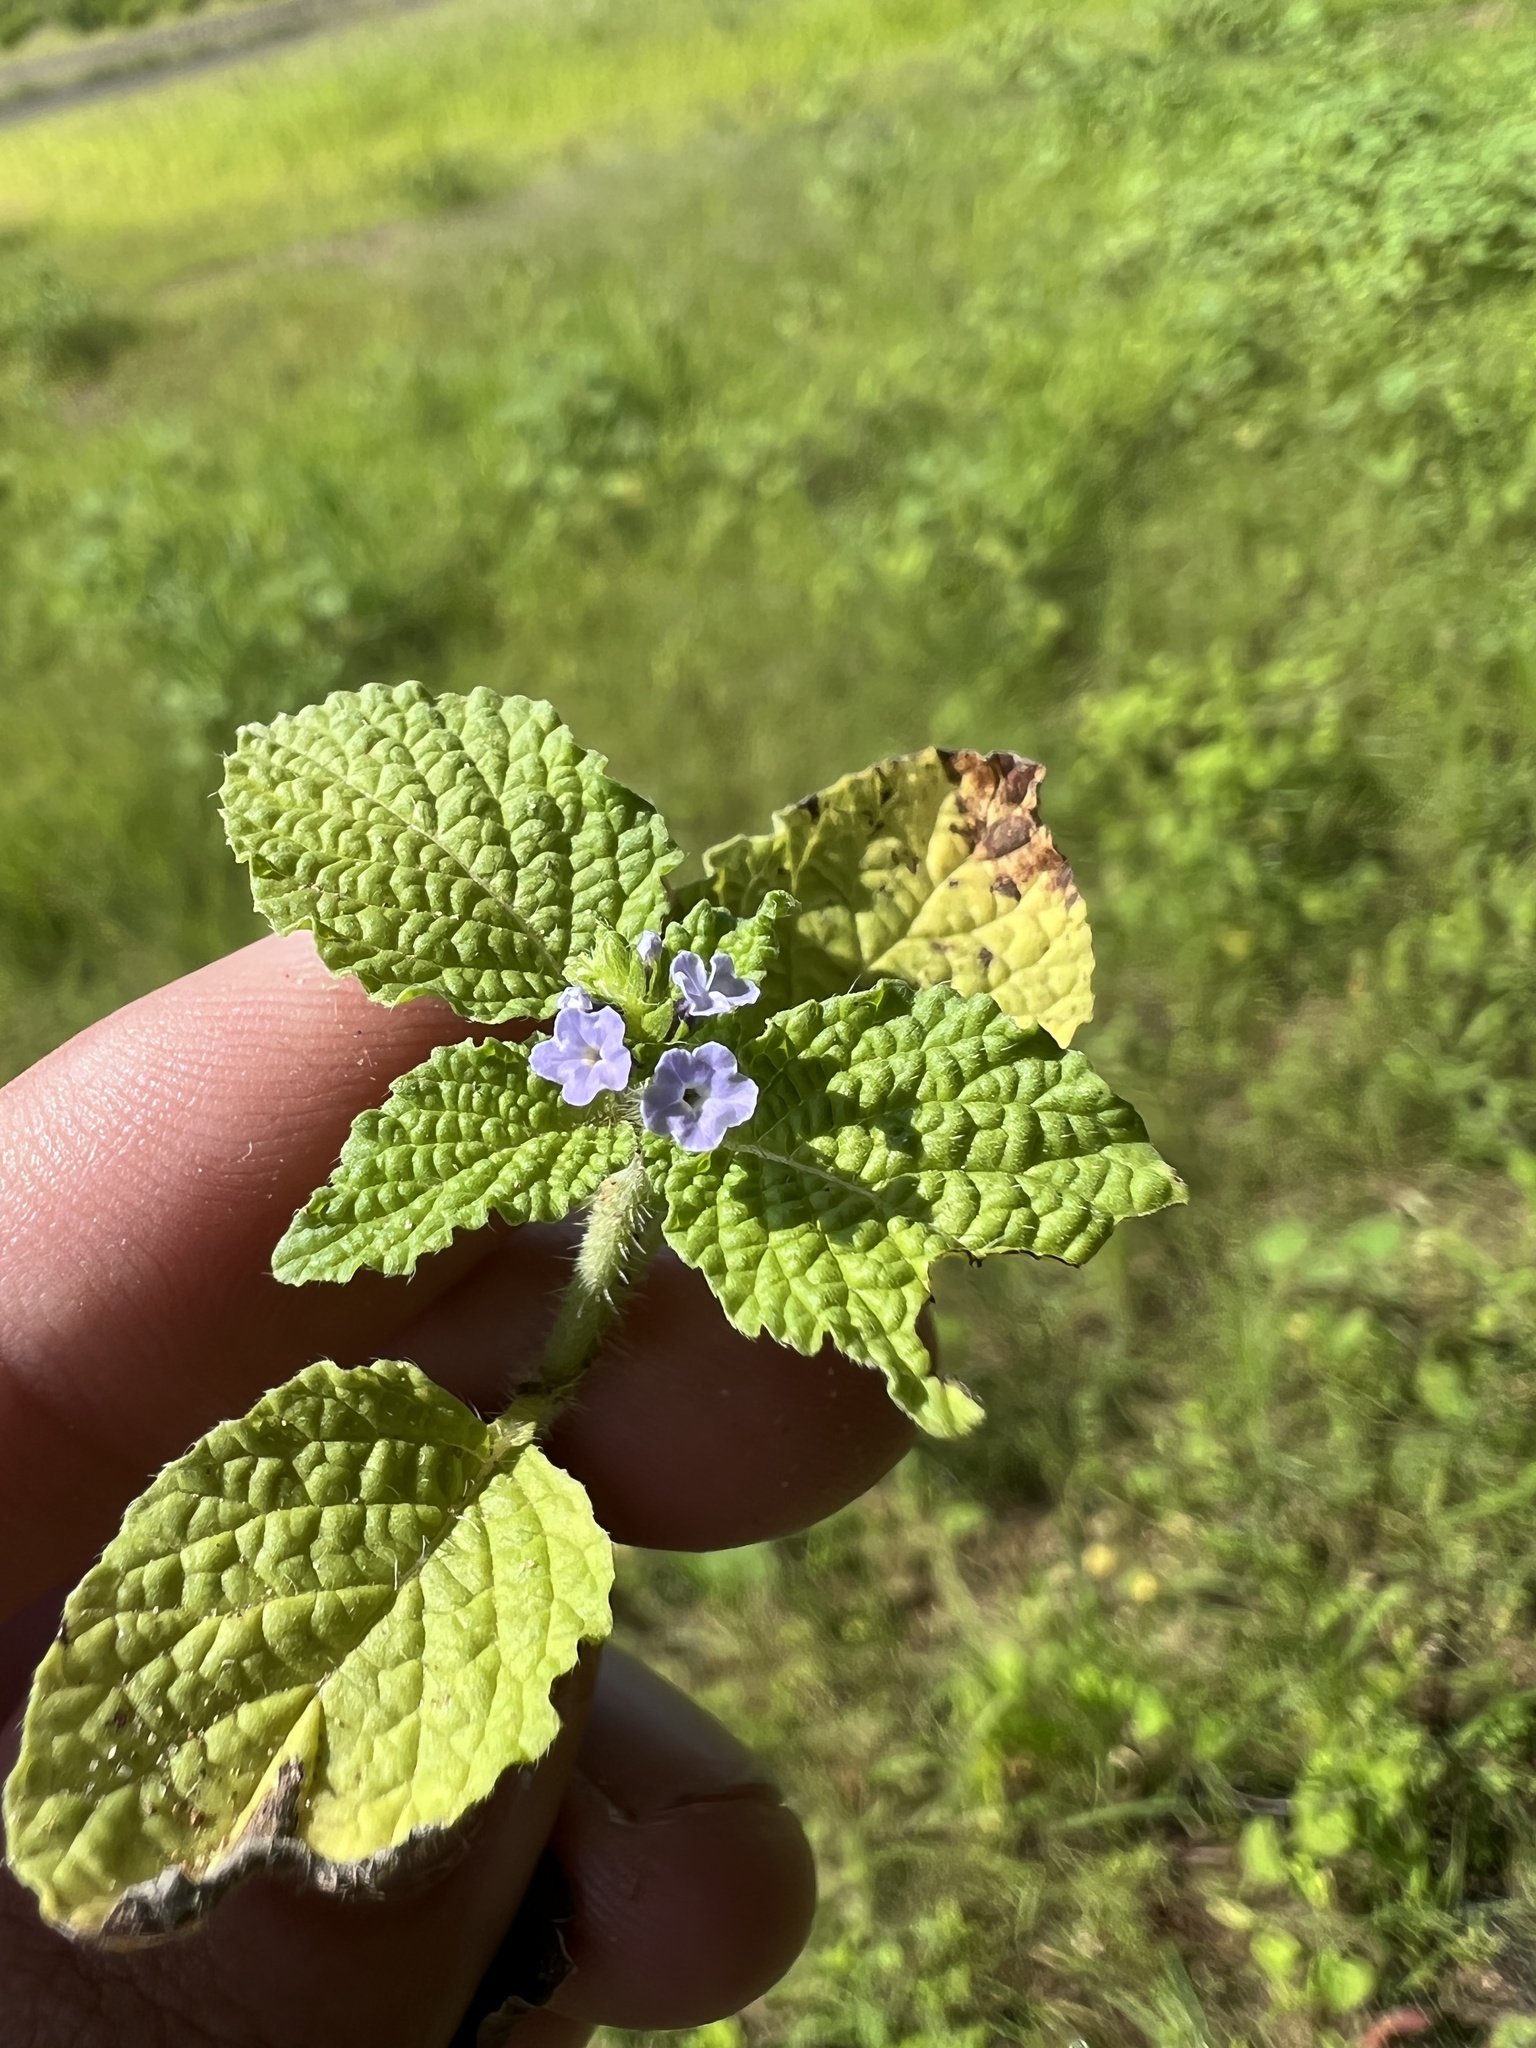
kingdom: Plantae
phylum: Tracheophyta
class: Magnoliopsida
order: Boraginales
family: Heliotropiaceae
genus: Heliotropium
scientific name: Heliotropium indicum
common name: Indian heliotrope
